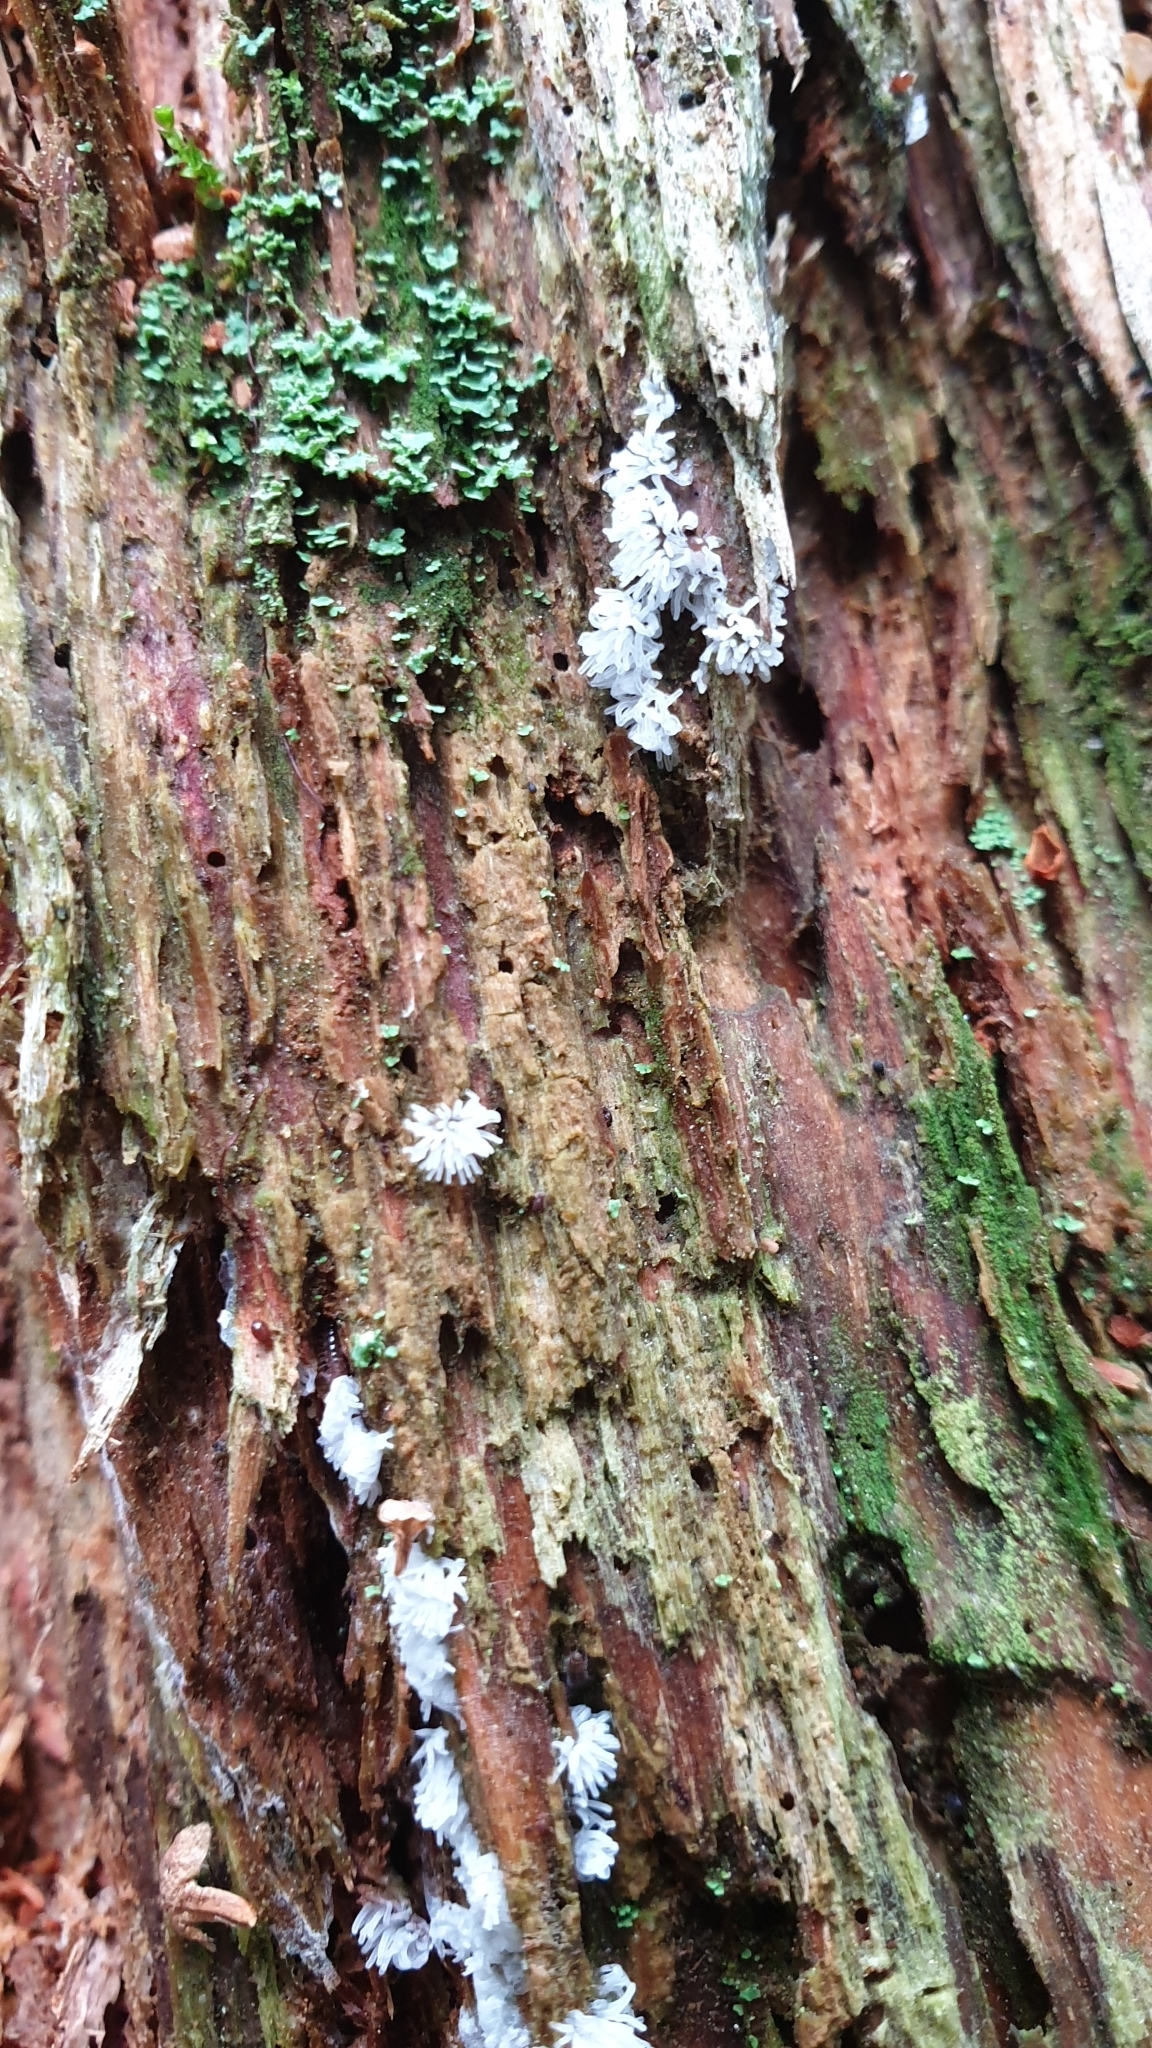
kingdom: Protozoa
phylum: Mycetozoa
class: Protosteliomycetes
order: Ceratiomyxales
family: Ceratiomyxaceae
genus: Ceratiomyxa
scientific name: Ceratiomyxa fruticulosa
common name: Honeycomb coral slime mold
